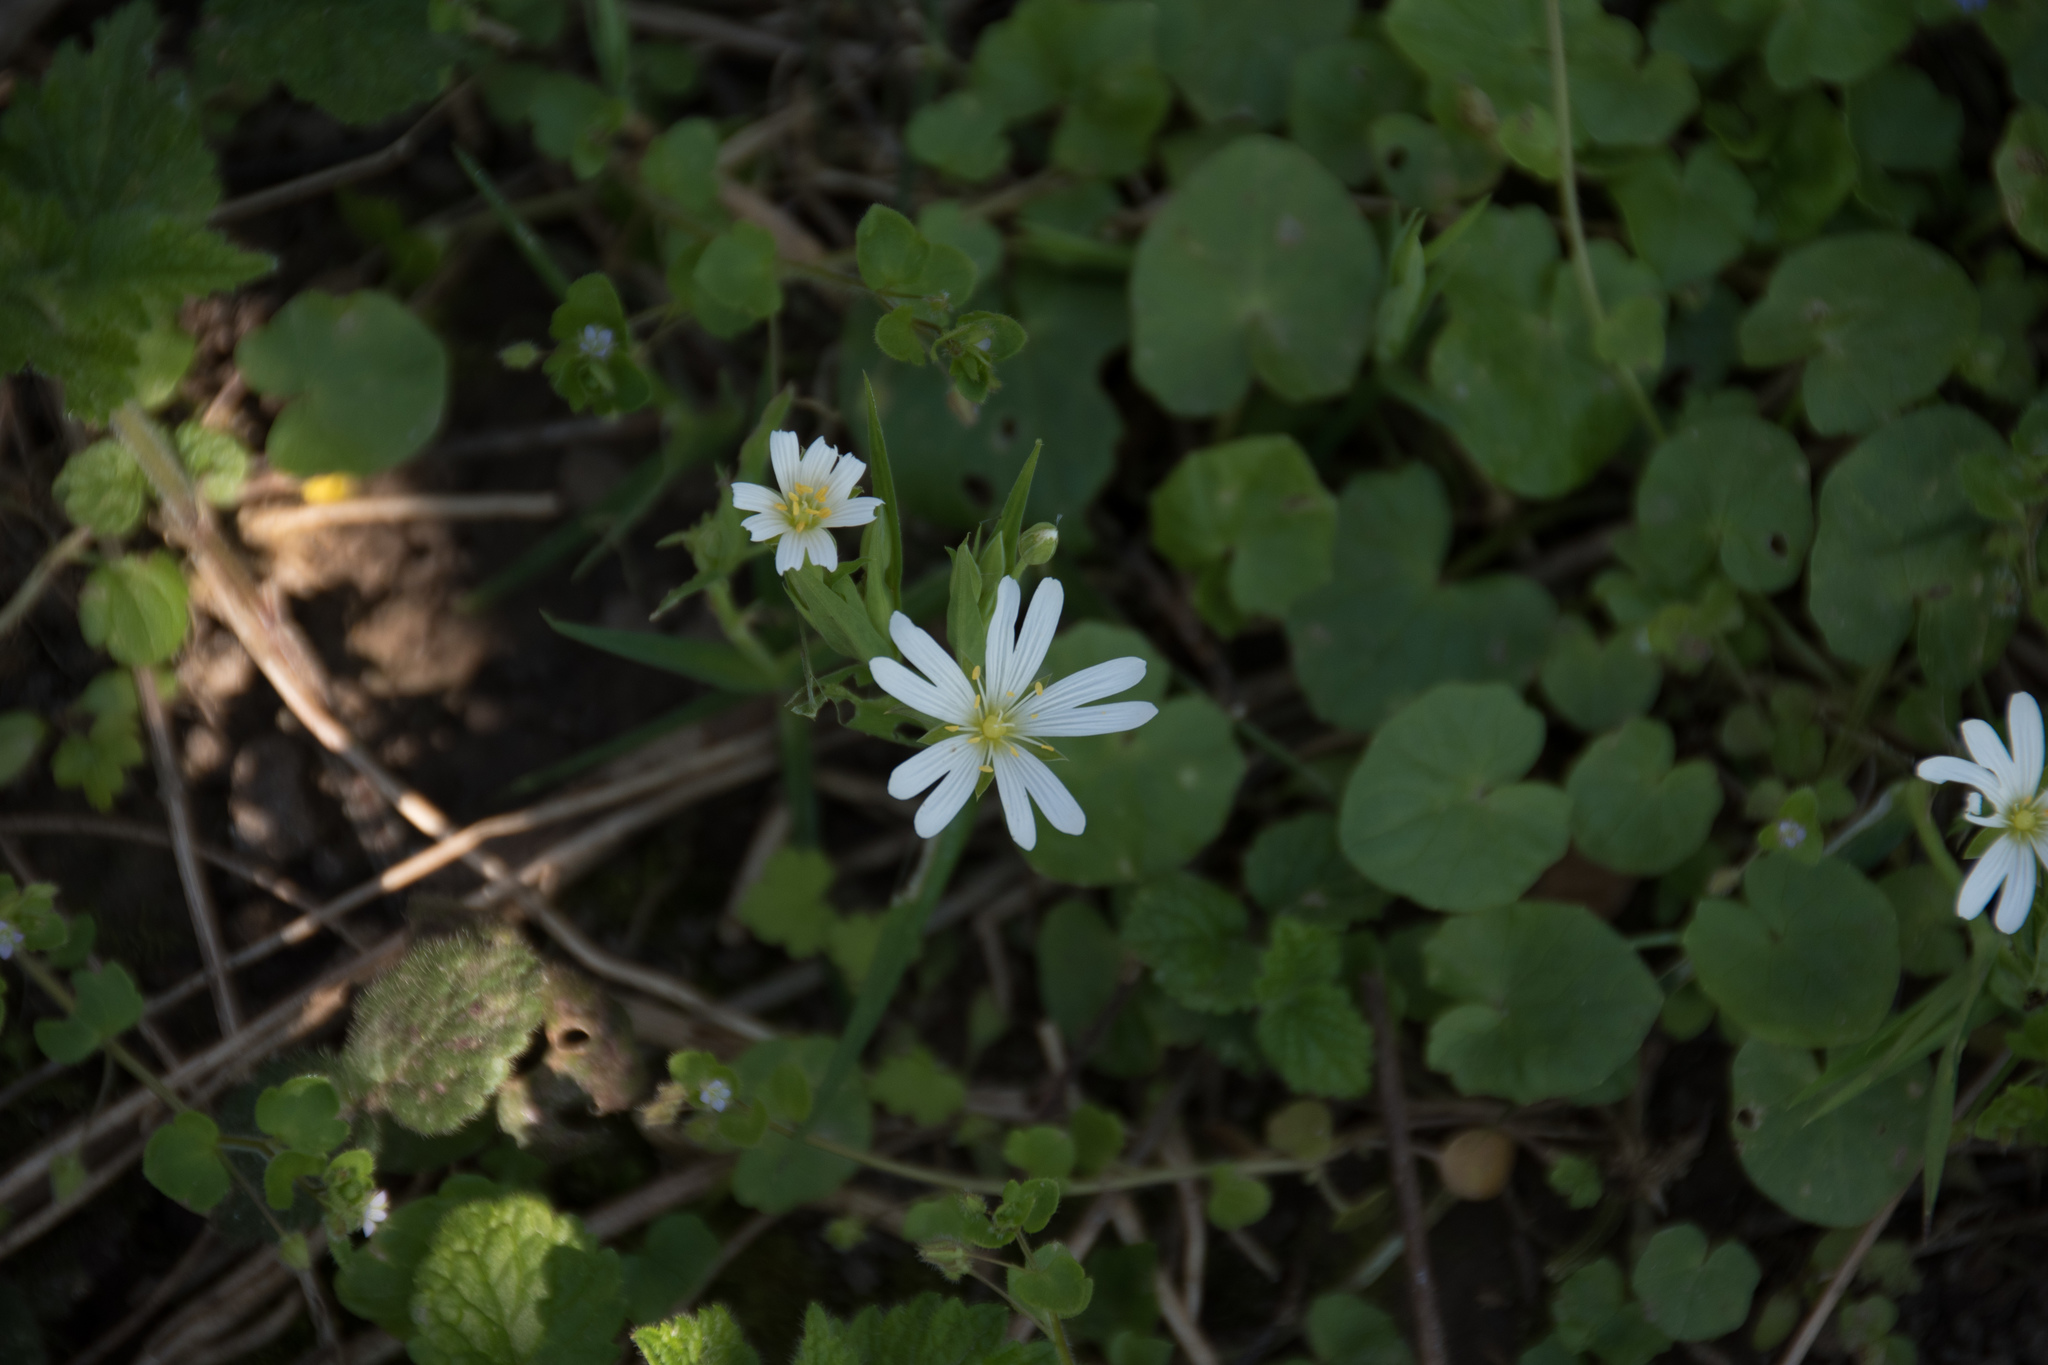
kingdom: Plantae
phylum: Tracheophyta
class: Magnoliopsida
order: Caryophyllales
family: Caryophyllaceae
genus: Rabelera
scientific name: Rabelera holostea
